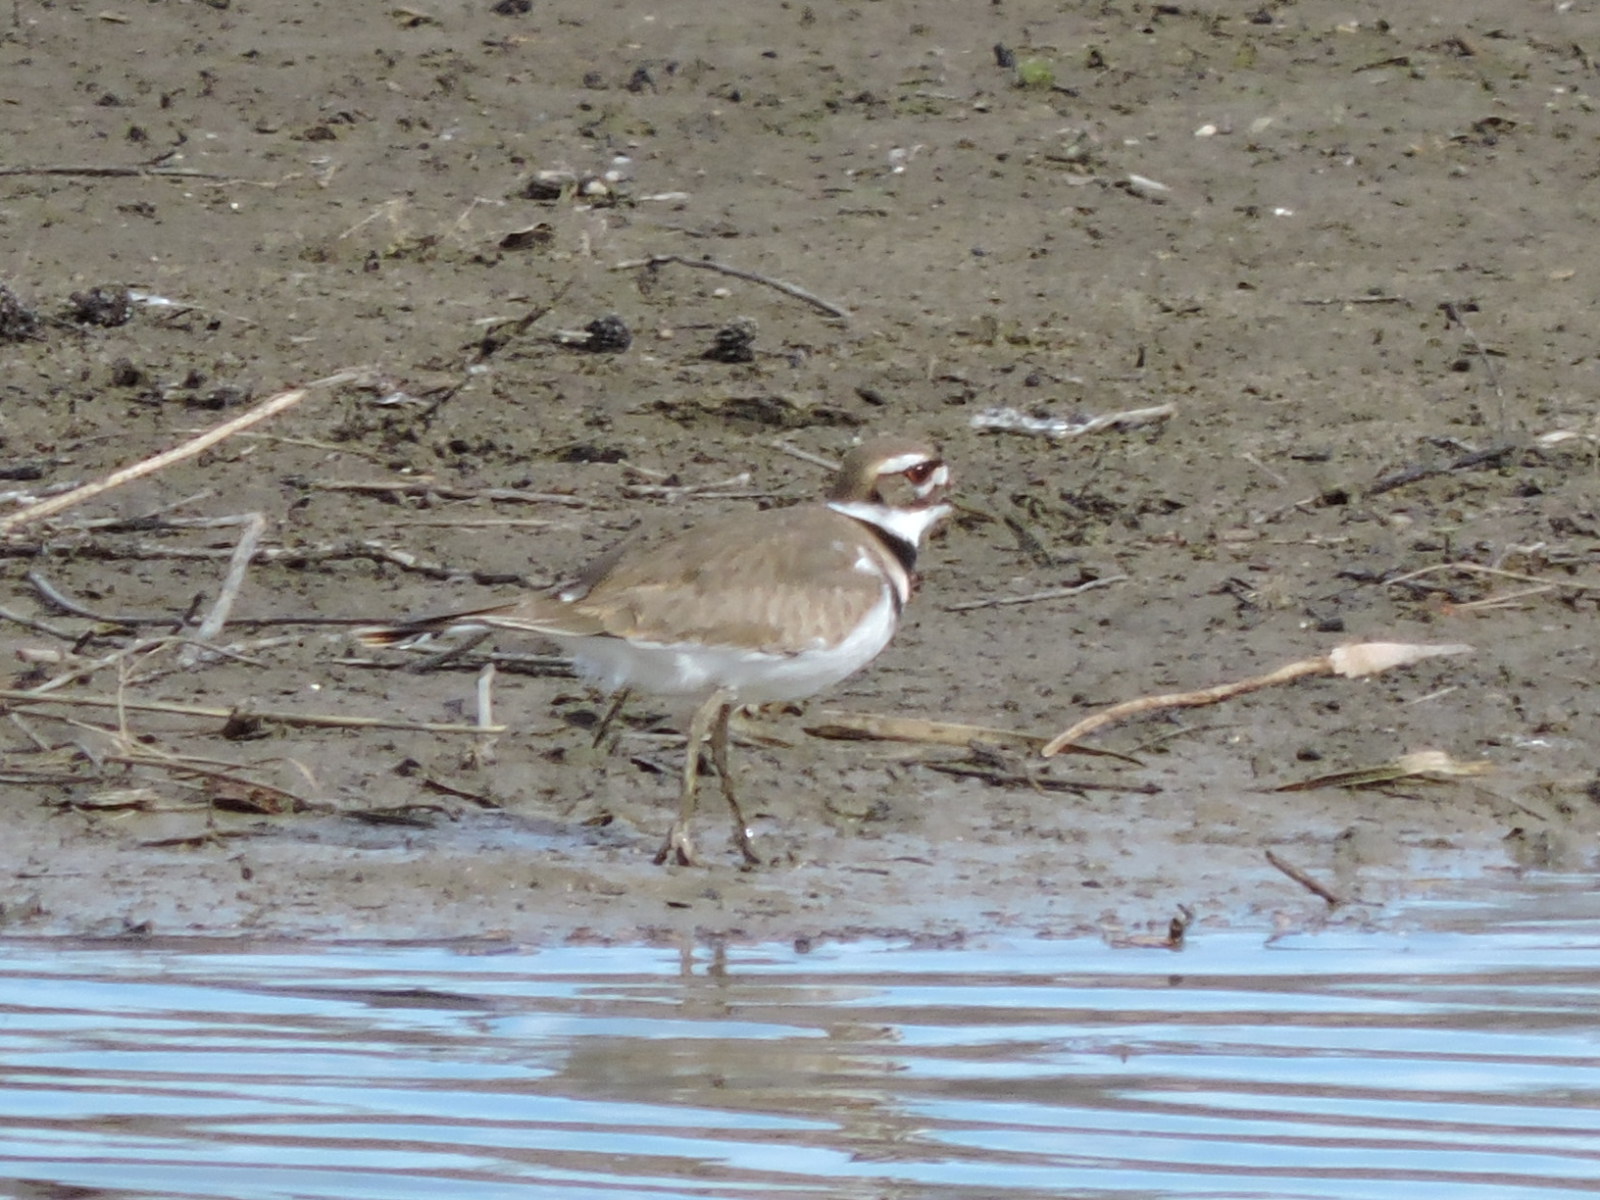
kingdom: Animalia
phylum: Chordata
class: Aves
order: Charadriiformes
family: Charadriidae
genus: Charadrius
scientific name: Charadrius vociferus
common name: Killdeer
